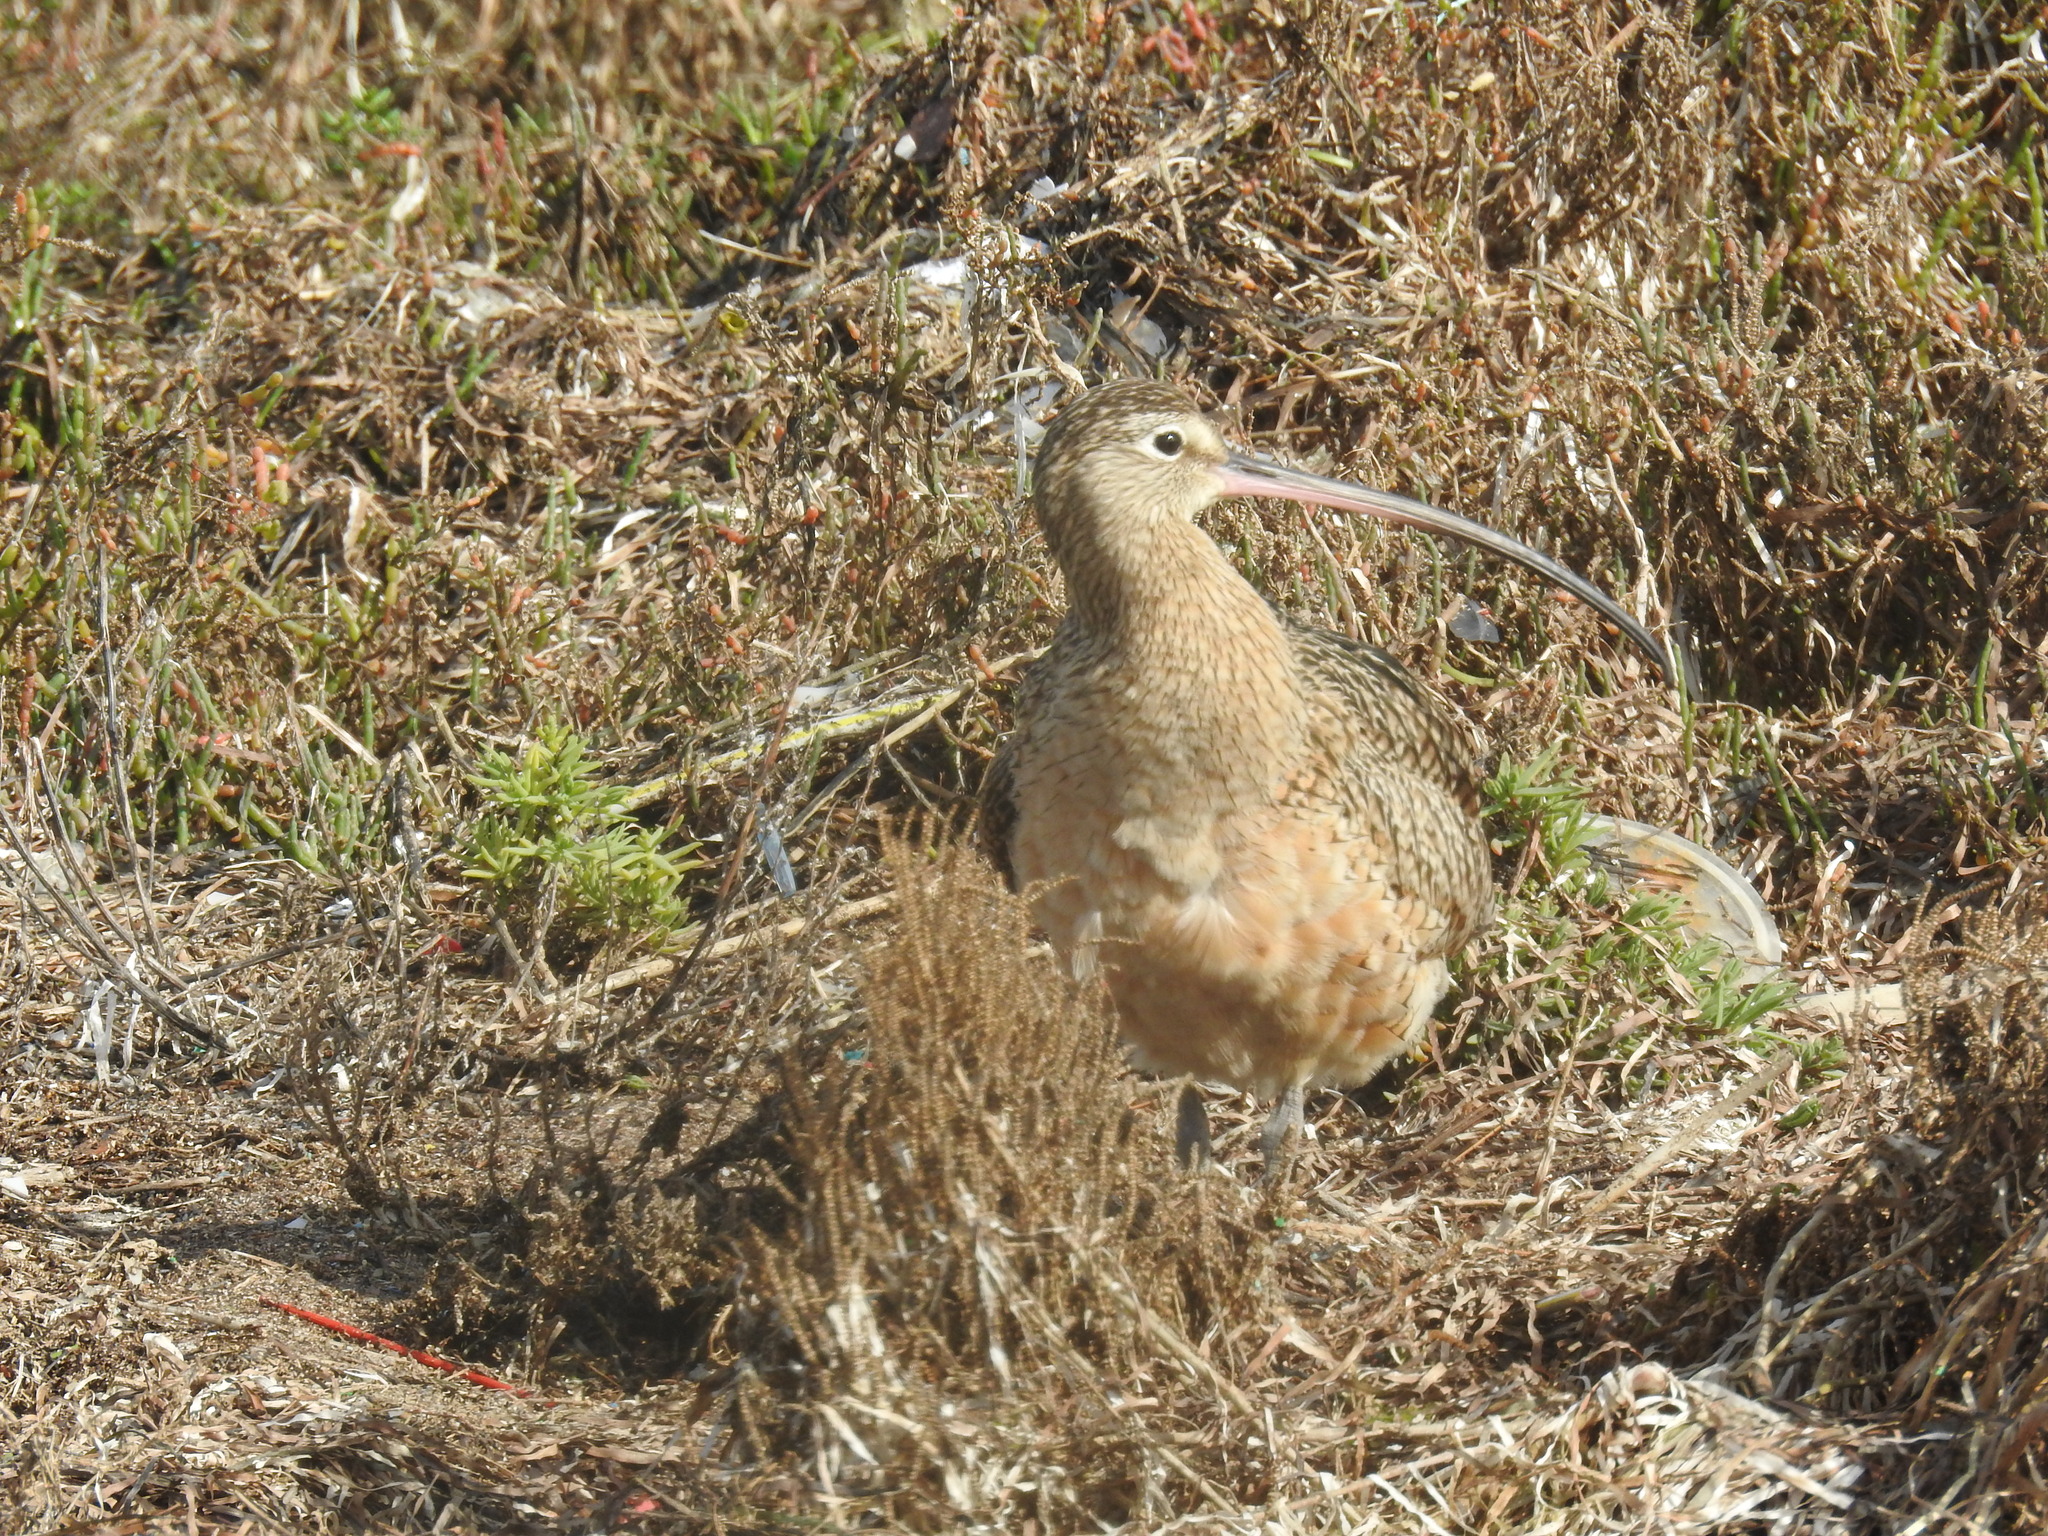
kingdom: Animalia
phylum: Chordata
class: Aves
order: Charadriiformes
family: Scolopacidae
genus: Numenius
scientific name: Numenius americanus
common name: Long-billed curlew
